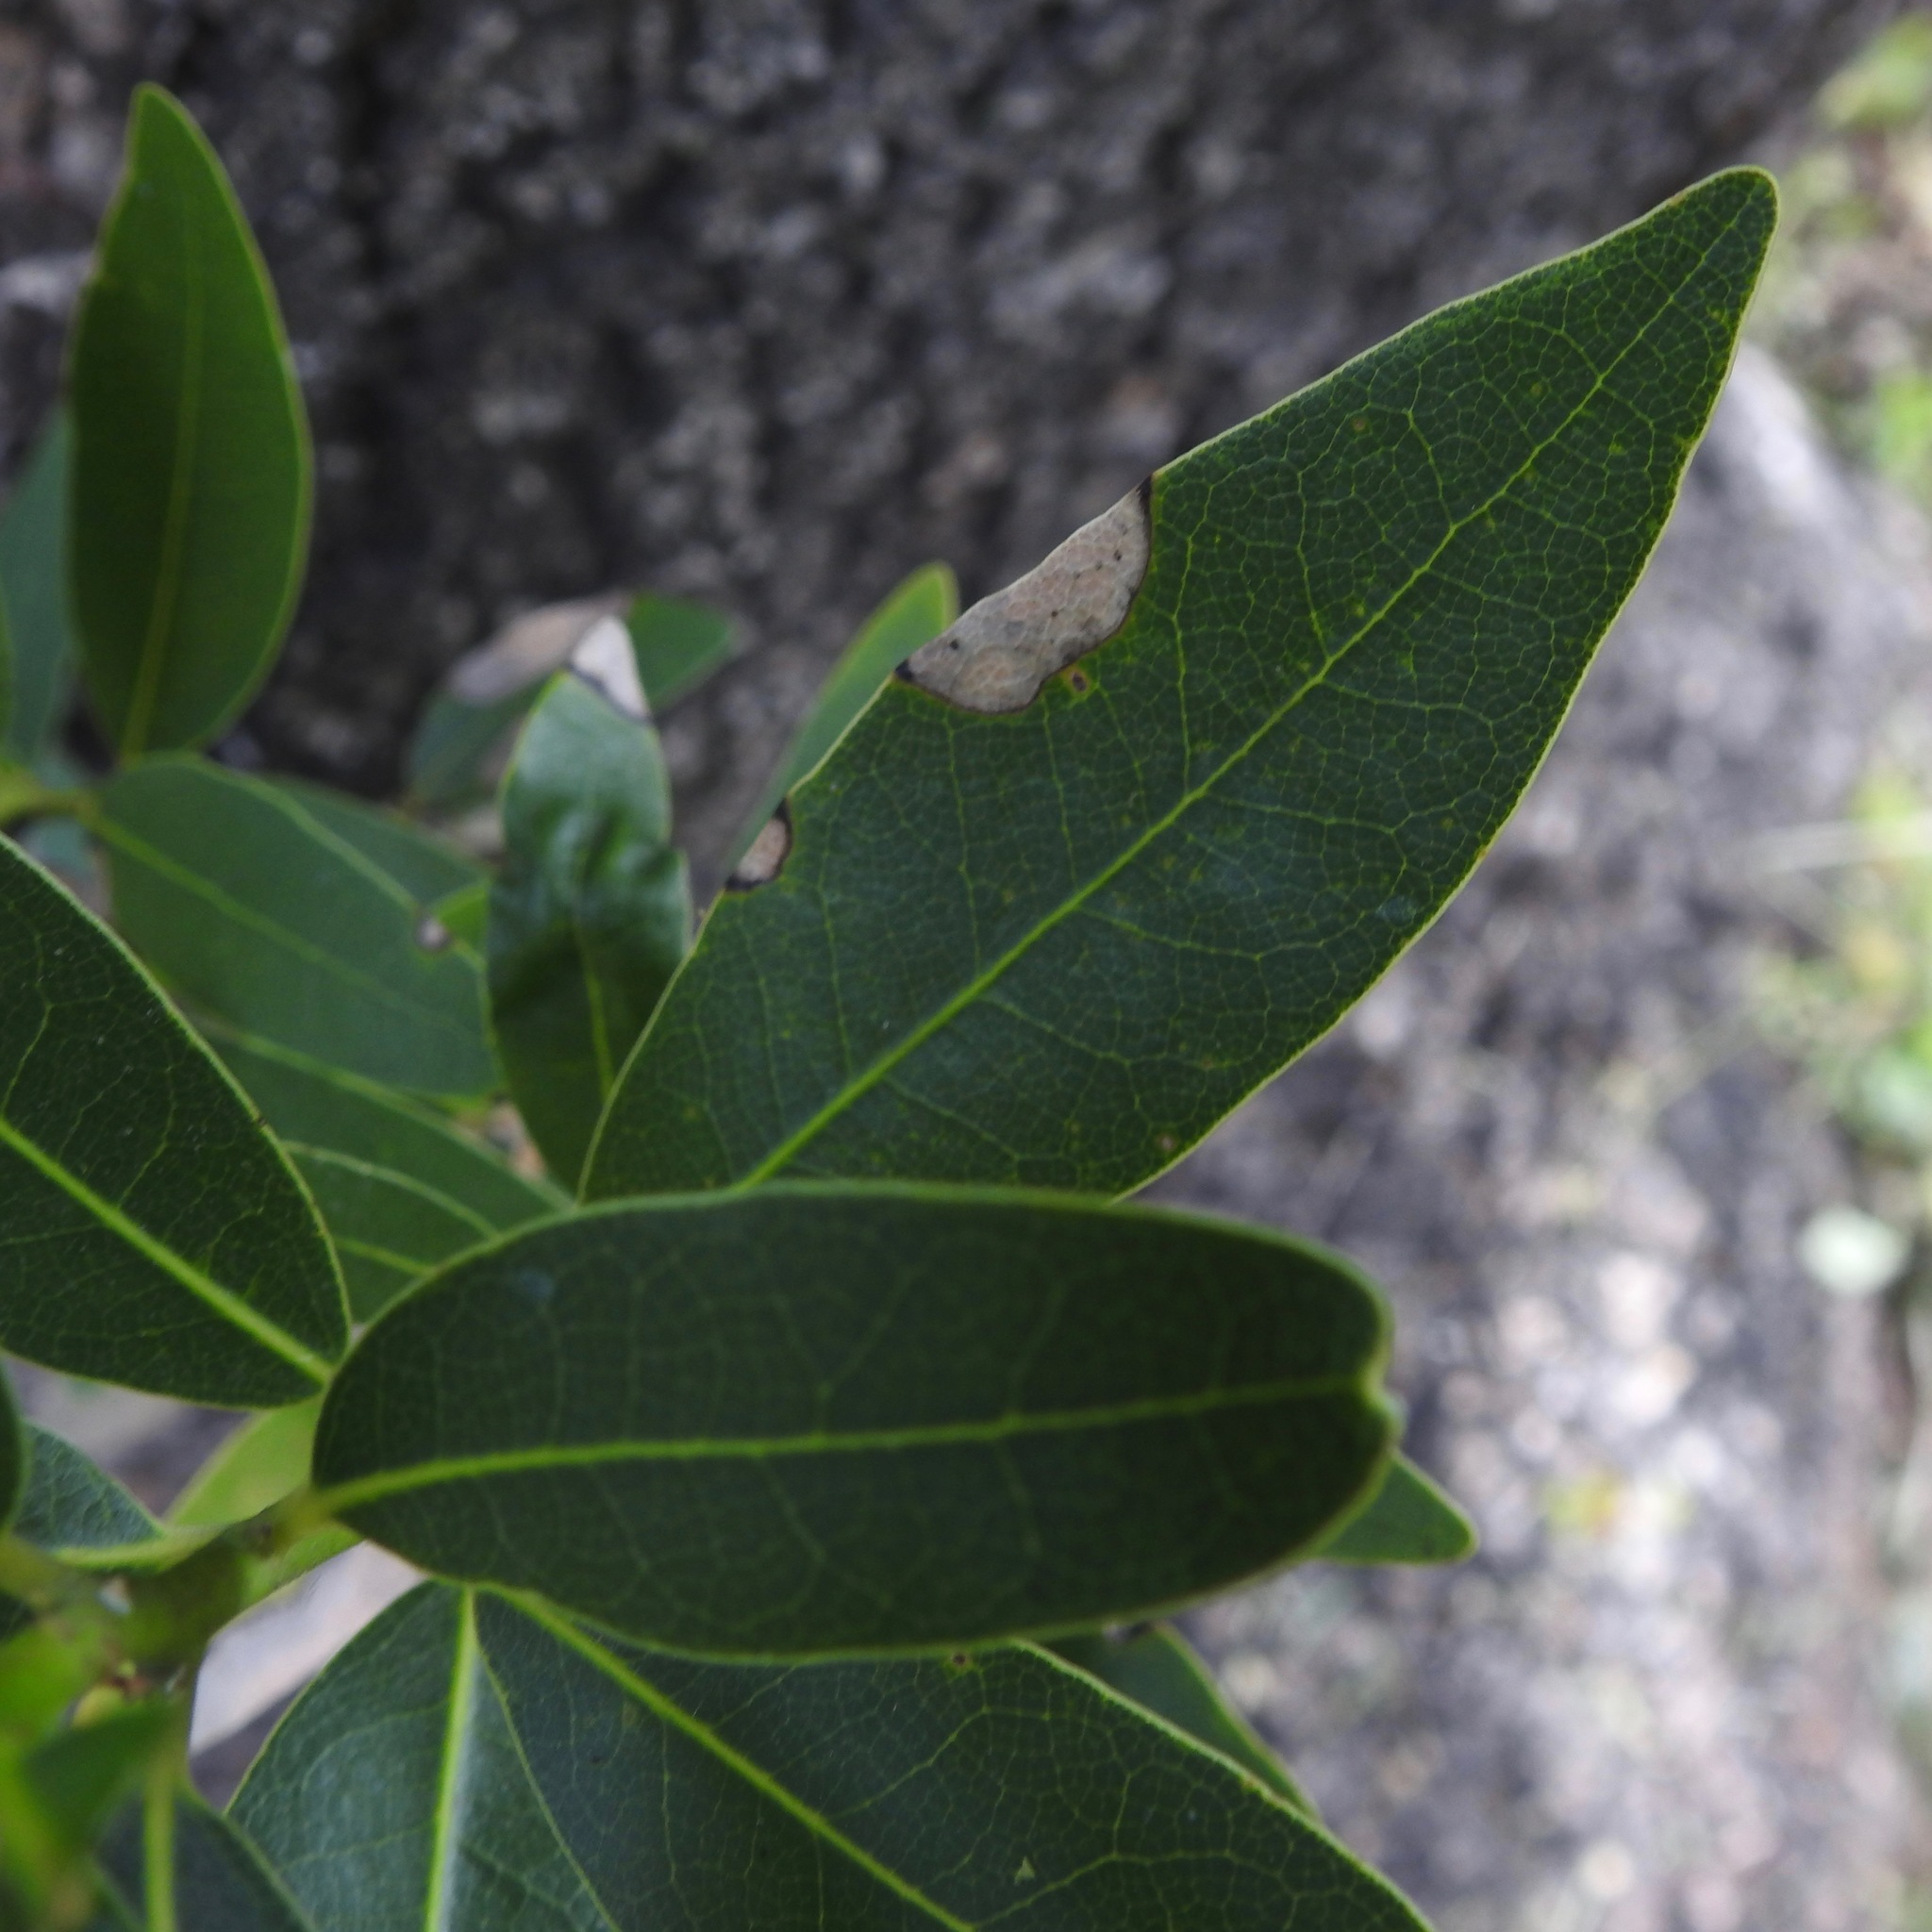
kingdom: Plantae
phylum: Tracheophyta
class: Magnoliopsida
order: Laurales
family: Lauraceae
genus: Umbellularia
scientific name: Umbellularia californica
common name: California bay
